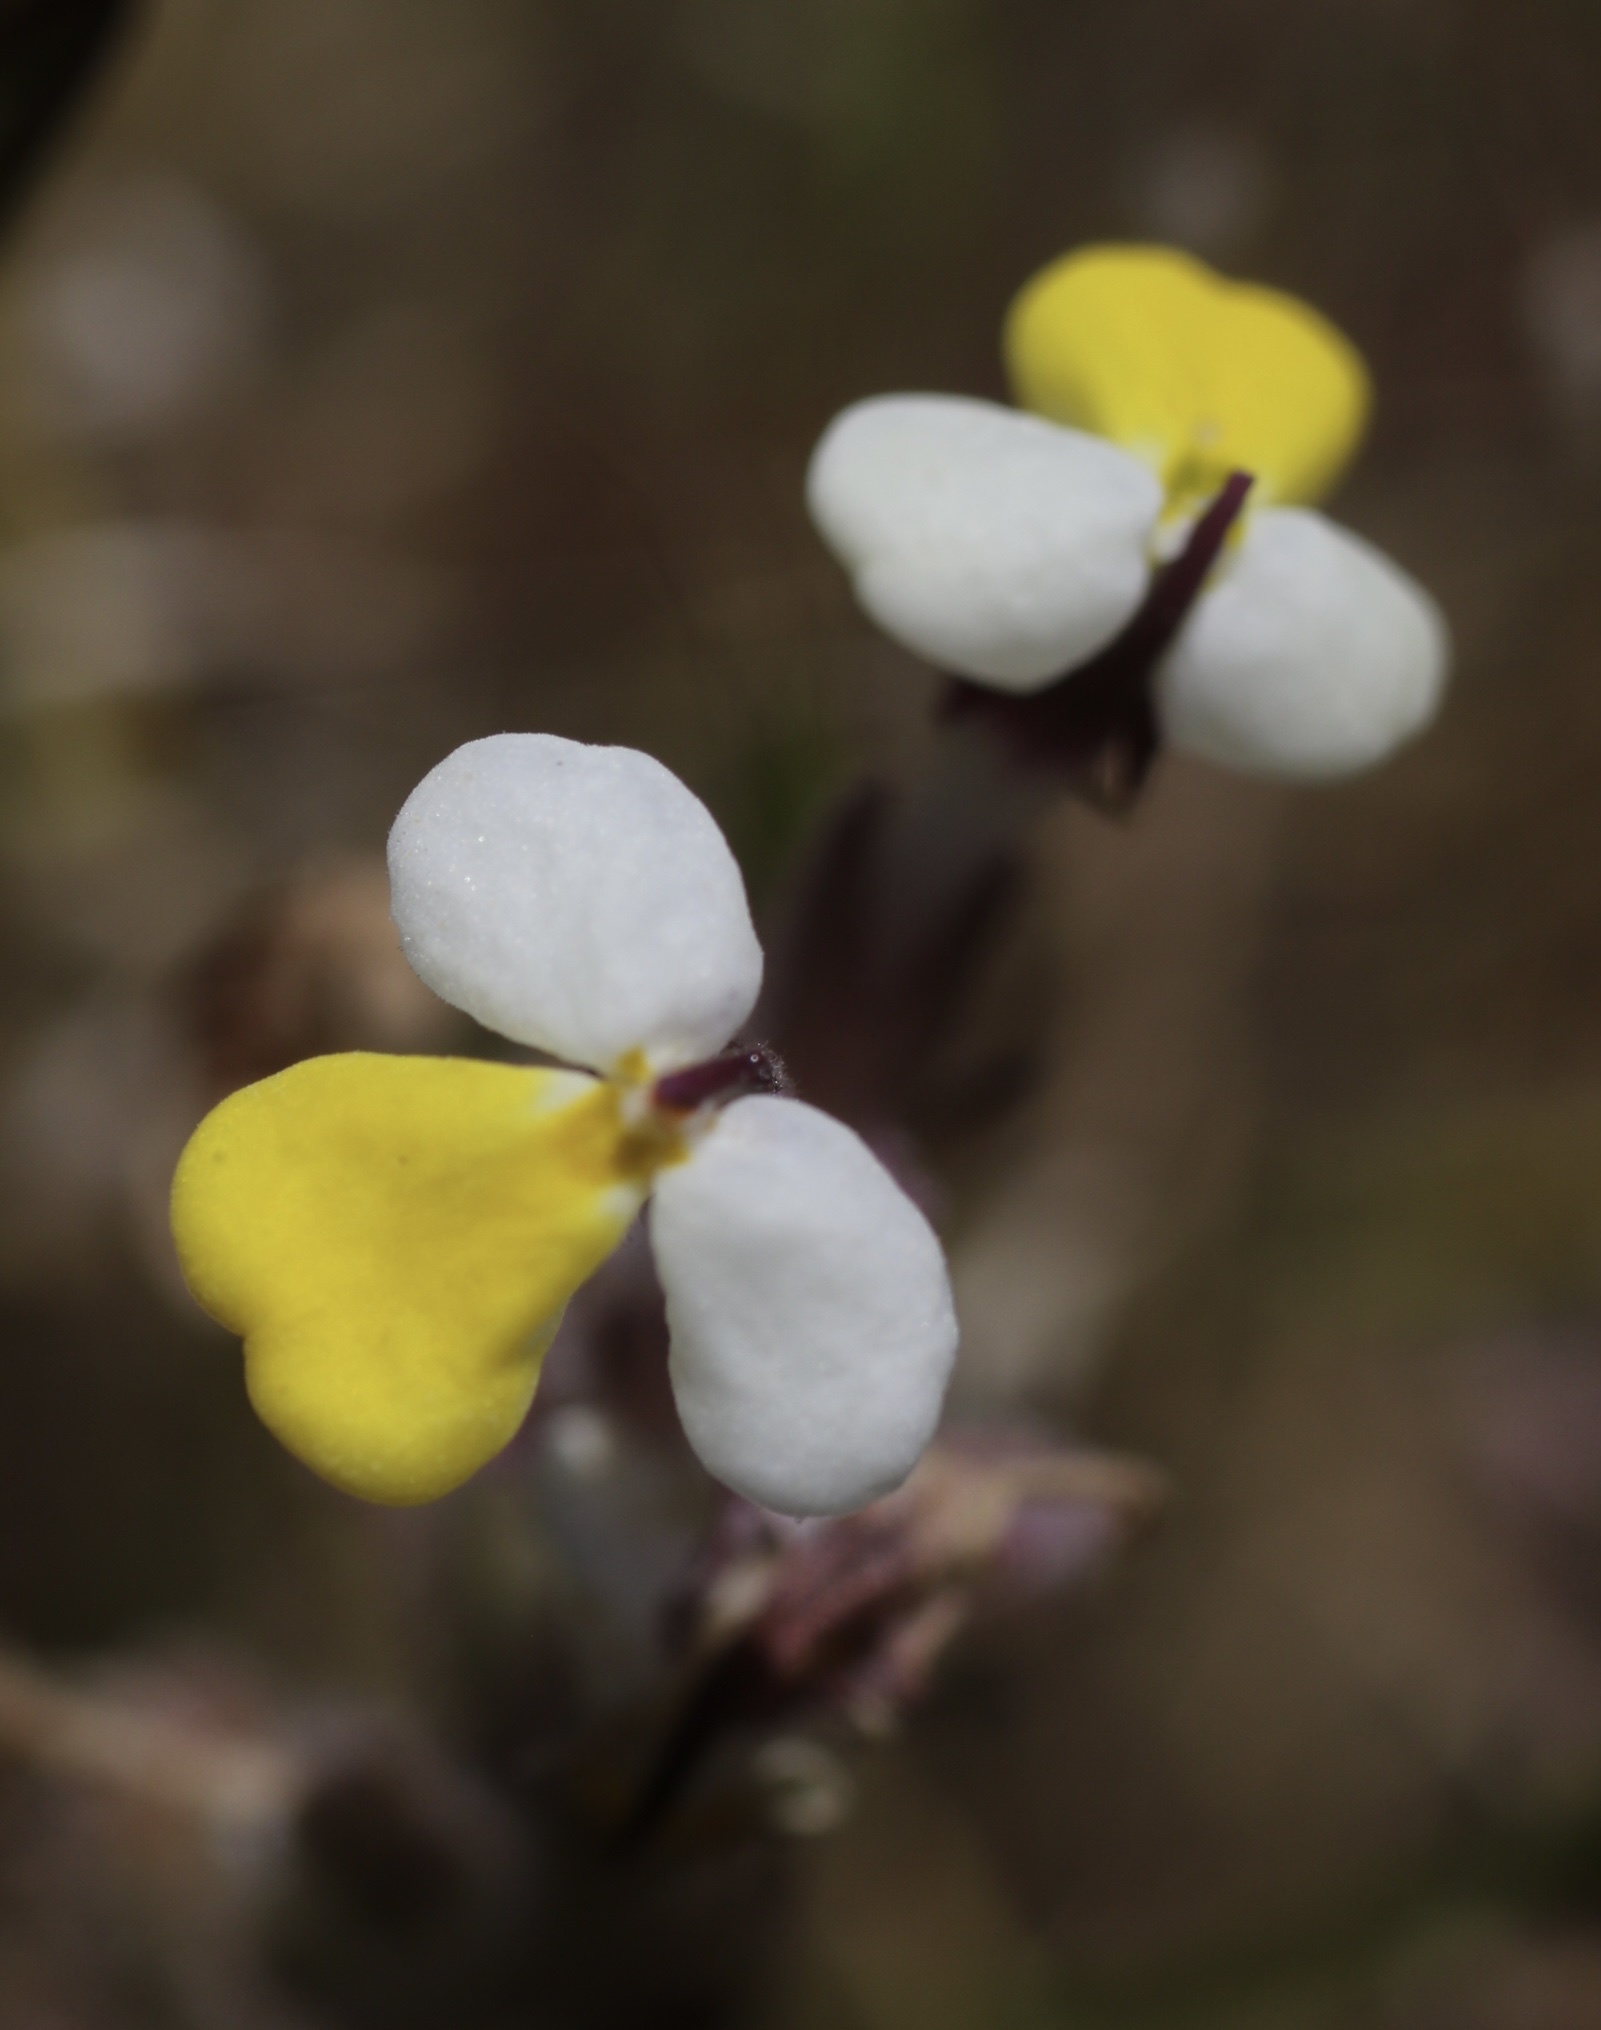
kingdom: Plantae
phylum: Tracheophyta
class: Magnoliopsida
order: Lamiales
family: Orobanchaceae
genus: Triphysaria
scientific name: Triphysaria eriantha
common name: Johnny-tuck
